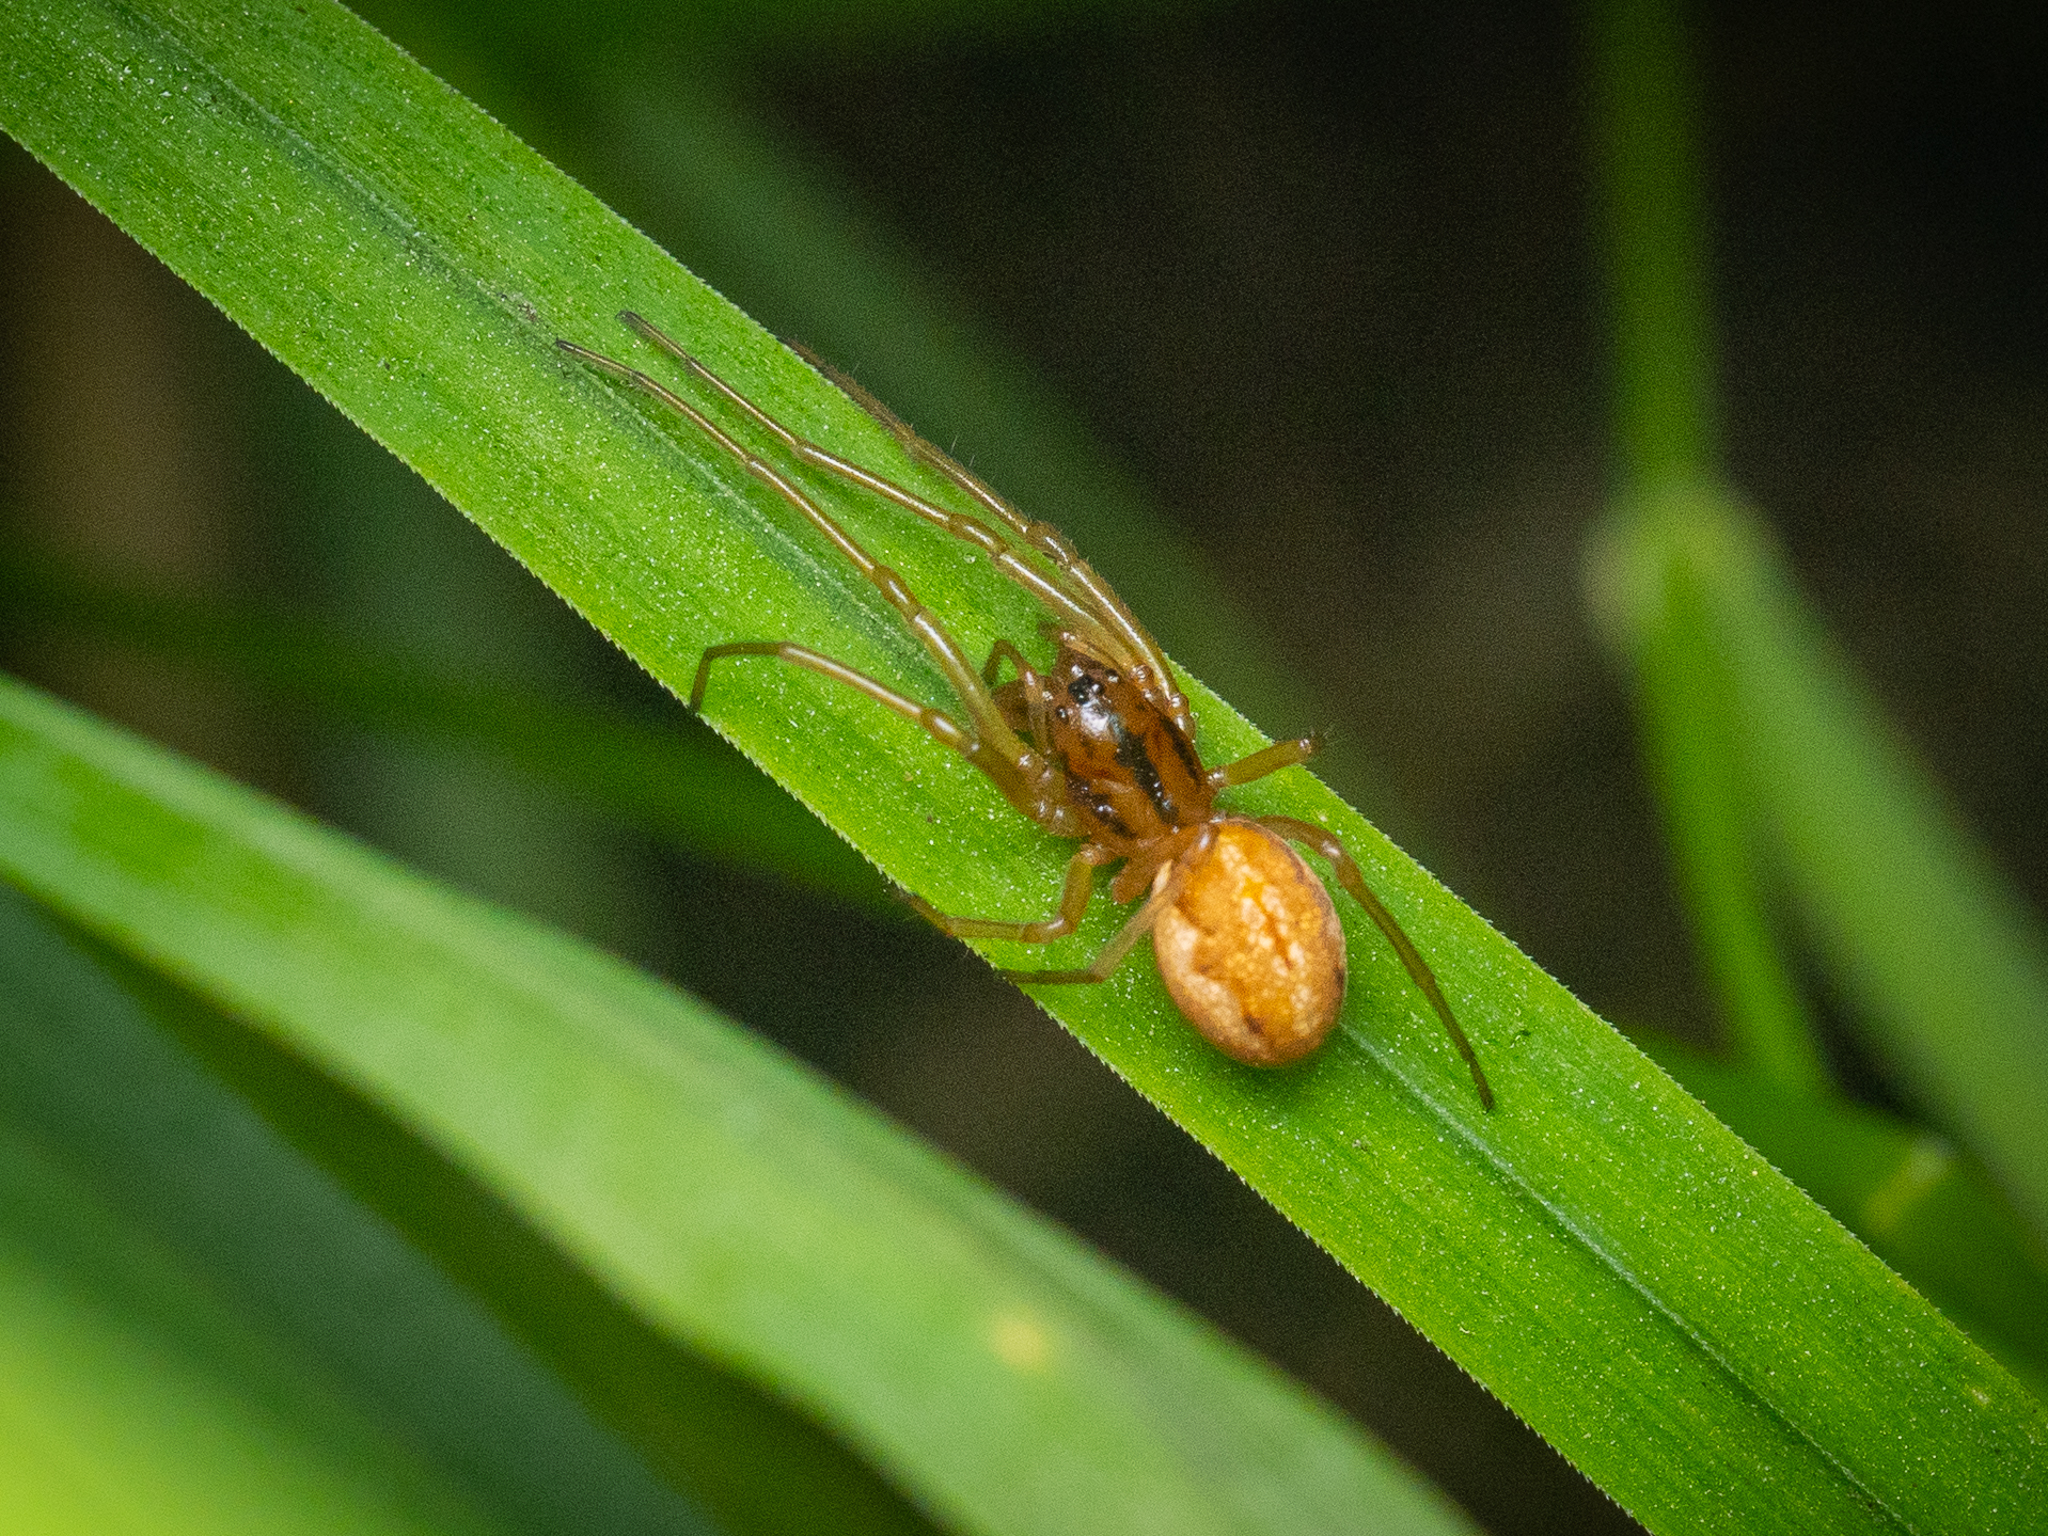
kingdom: Animalia
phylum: Arthropoda
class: Arachnida
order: Araneae
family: Tetragnathidae
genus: Pachygnatha
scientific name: Pachygnatha clercki
